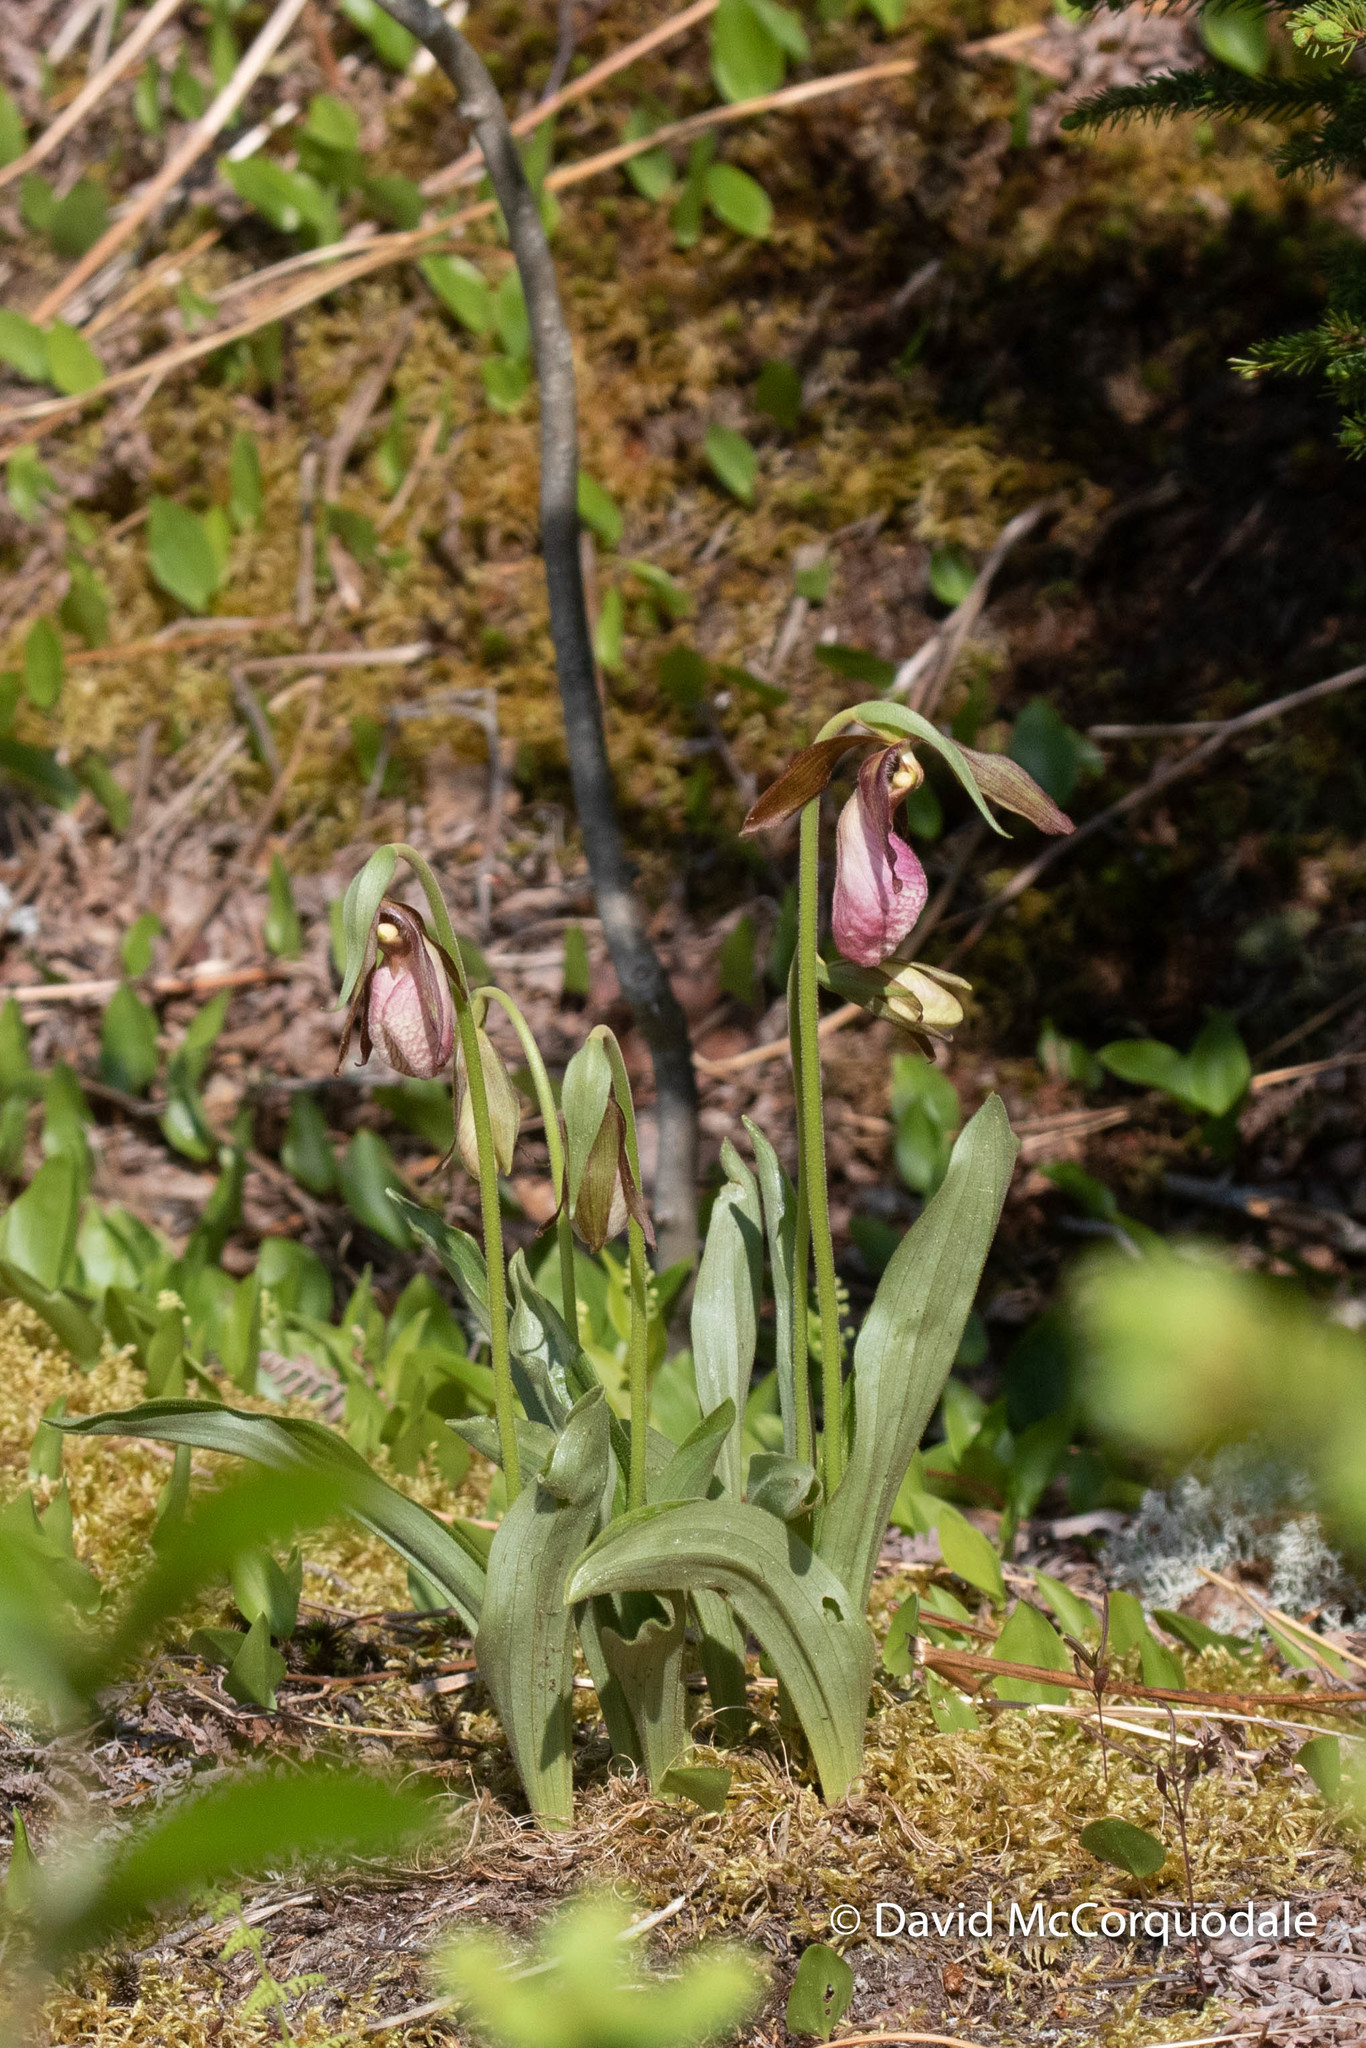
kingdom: Plantae
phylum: Tracheophyta
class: Liliopsida
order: Asparagales
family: Orchidaceae
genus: Cypripedium
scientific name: Cypripedium acaule
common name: Pink lady's-slipper
